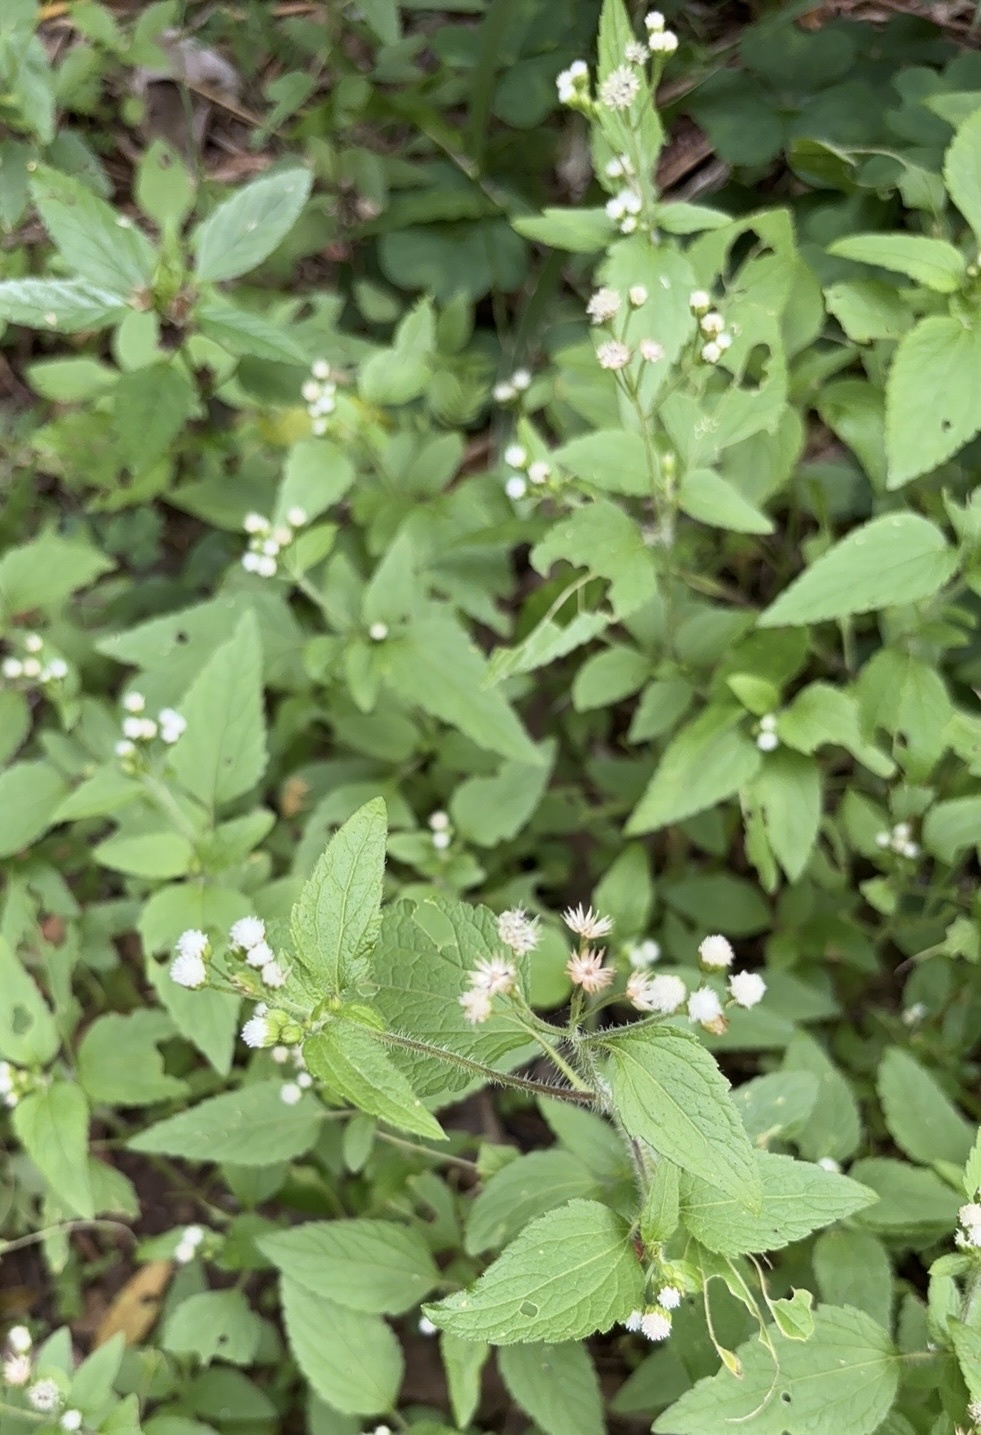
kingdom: Plantae
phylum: Tracheophyta
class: Magnoliopsida
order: Asterales
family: Asteraceae
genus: Ageratum
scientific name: Ageratum conyzoides
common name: Tropical whiteweed
